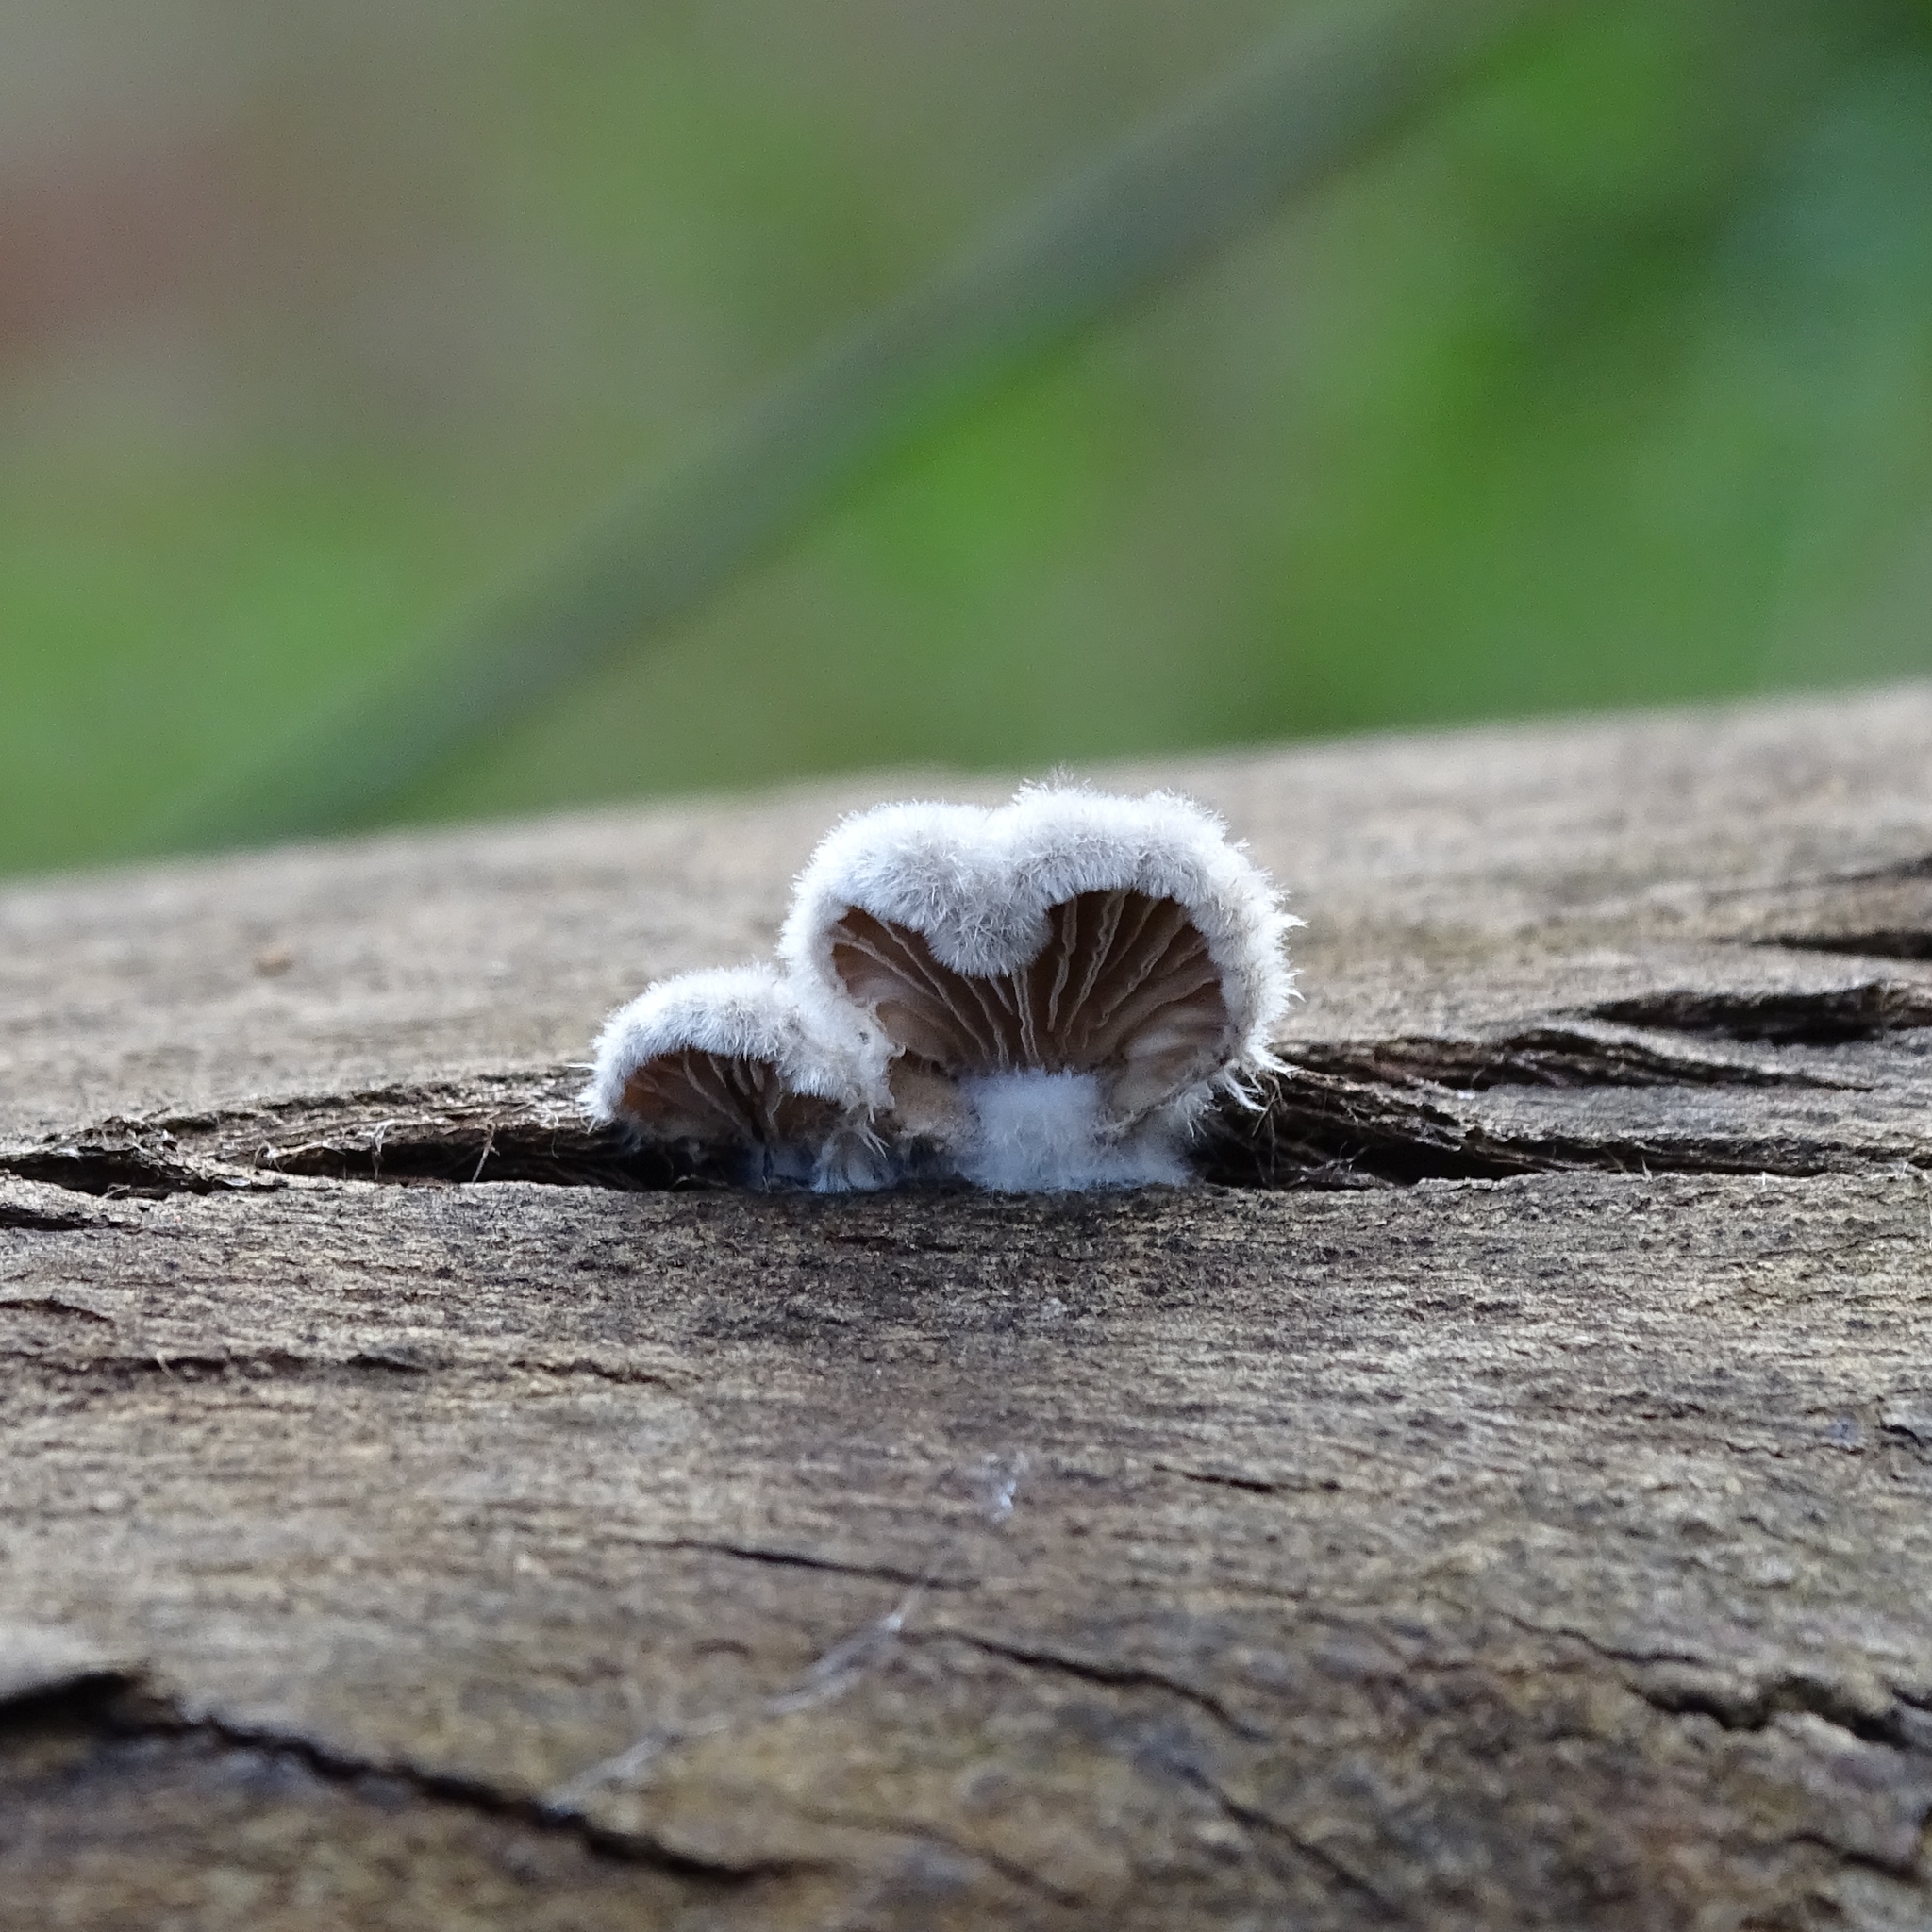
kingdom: Fungi
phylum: Basidiomycota
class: Agaricomycetes
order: Agaricales
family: Schizophyllaceae
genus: Schizophyllum
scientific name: Schizophyllum commune
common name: Common porecrust
